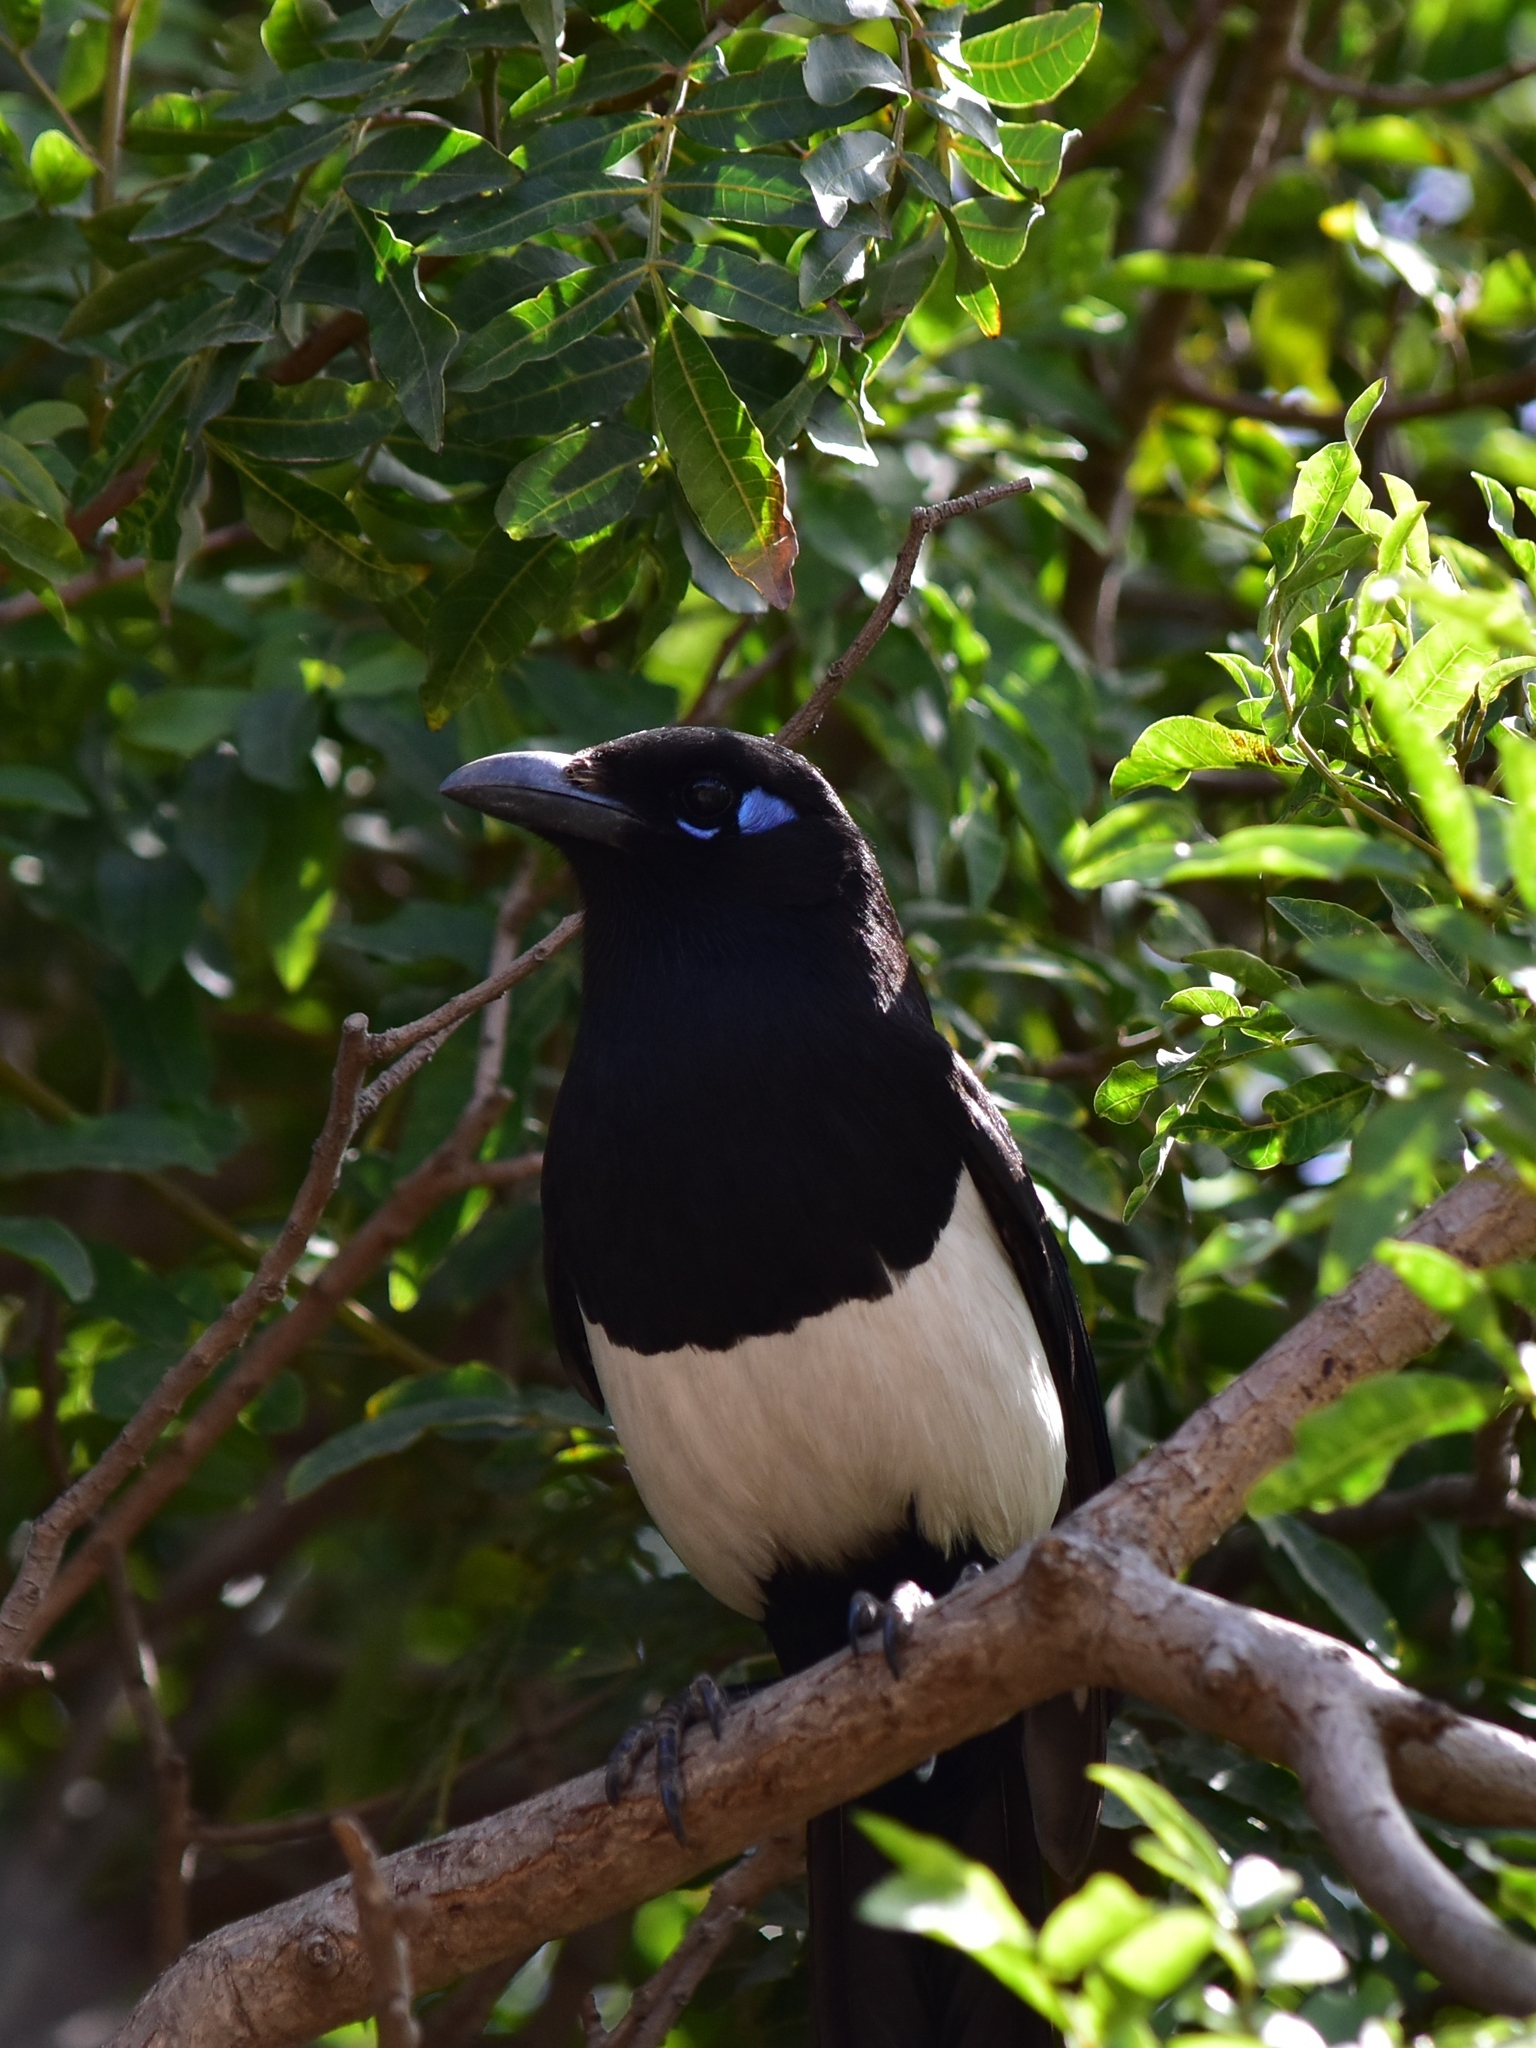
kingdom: Animalia
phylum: Chordata
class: Aves
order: Passeriformes
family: Corvidae
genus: Pica
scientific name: Pica mauritanica
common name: Maghreb magpie
